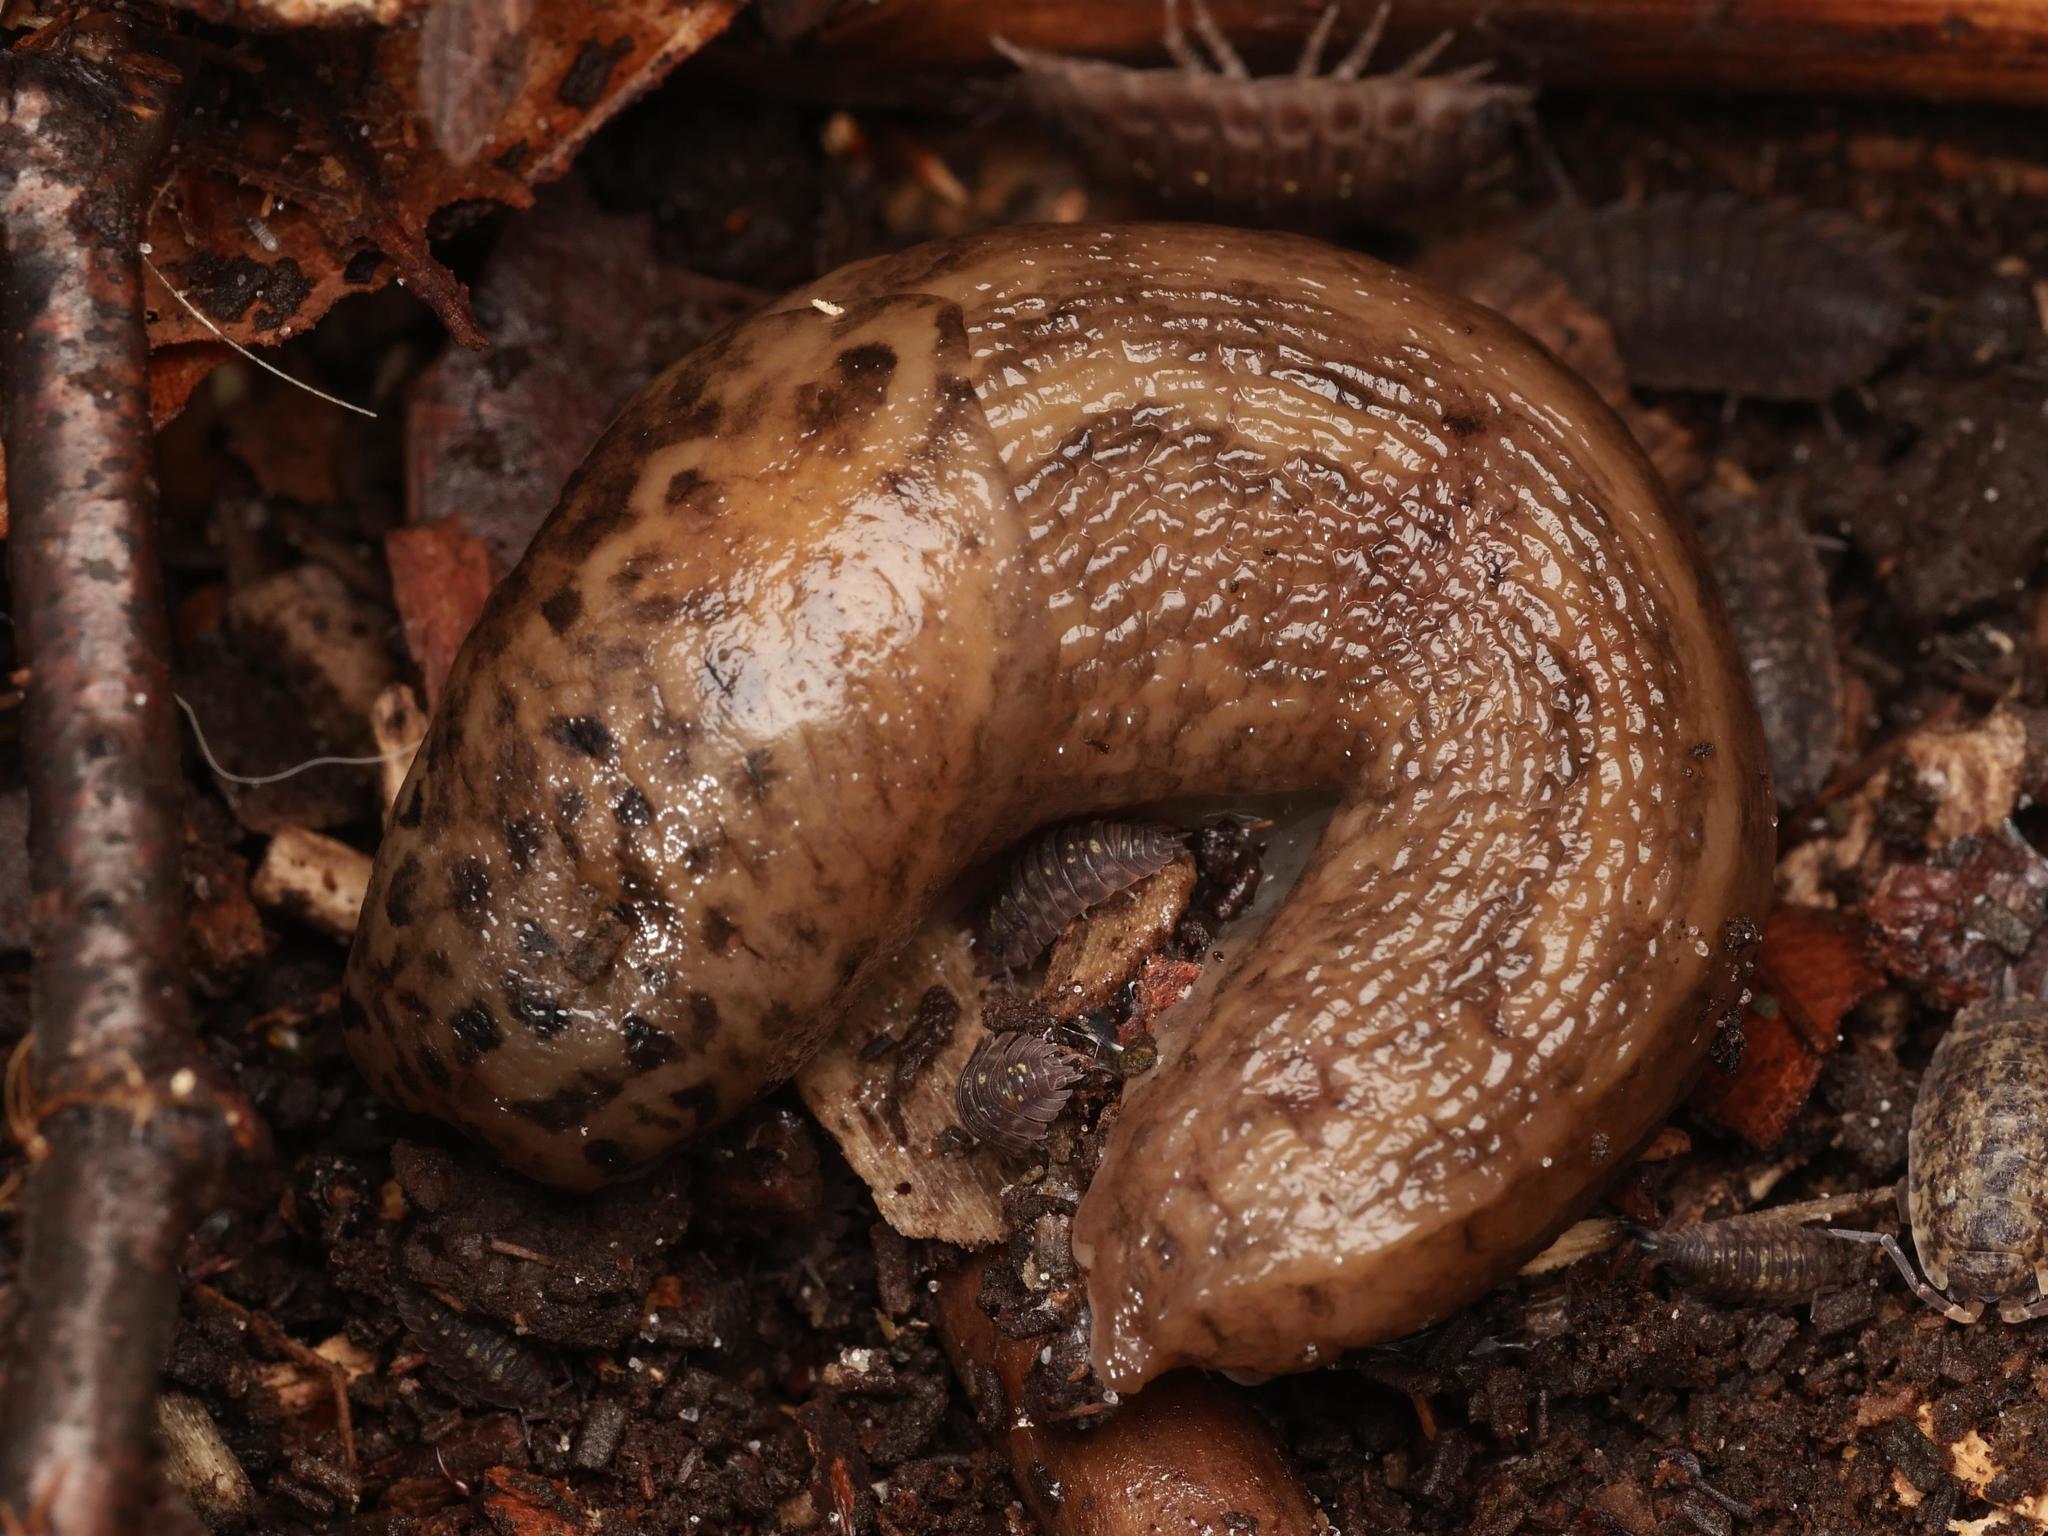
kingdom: Animalia
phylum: Mollusca
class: Gastropoda
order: Stylommatophora
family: Limacidae
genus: Limax
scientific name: Limax maximus
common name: Great grey slug
